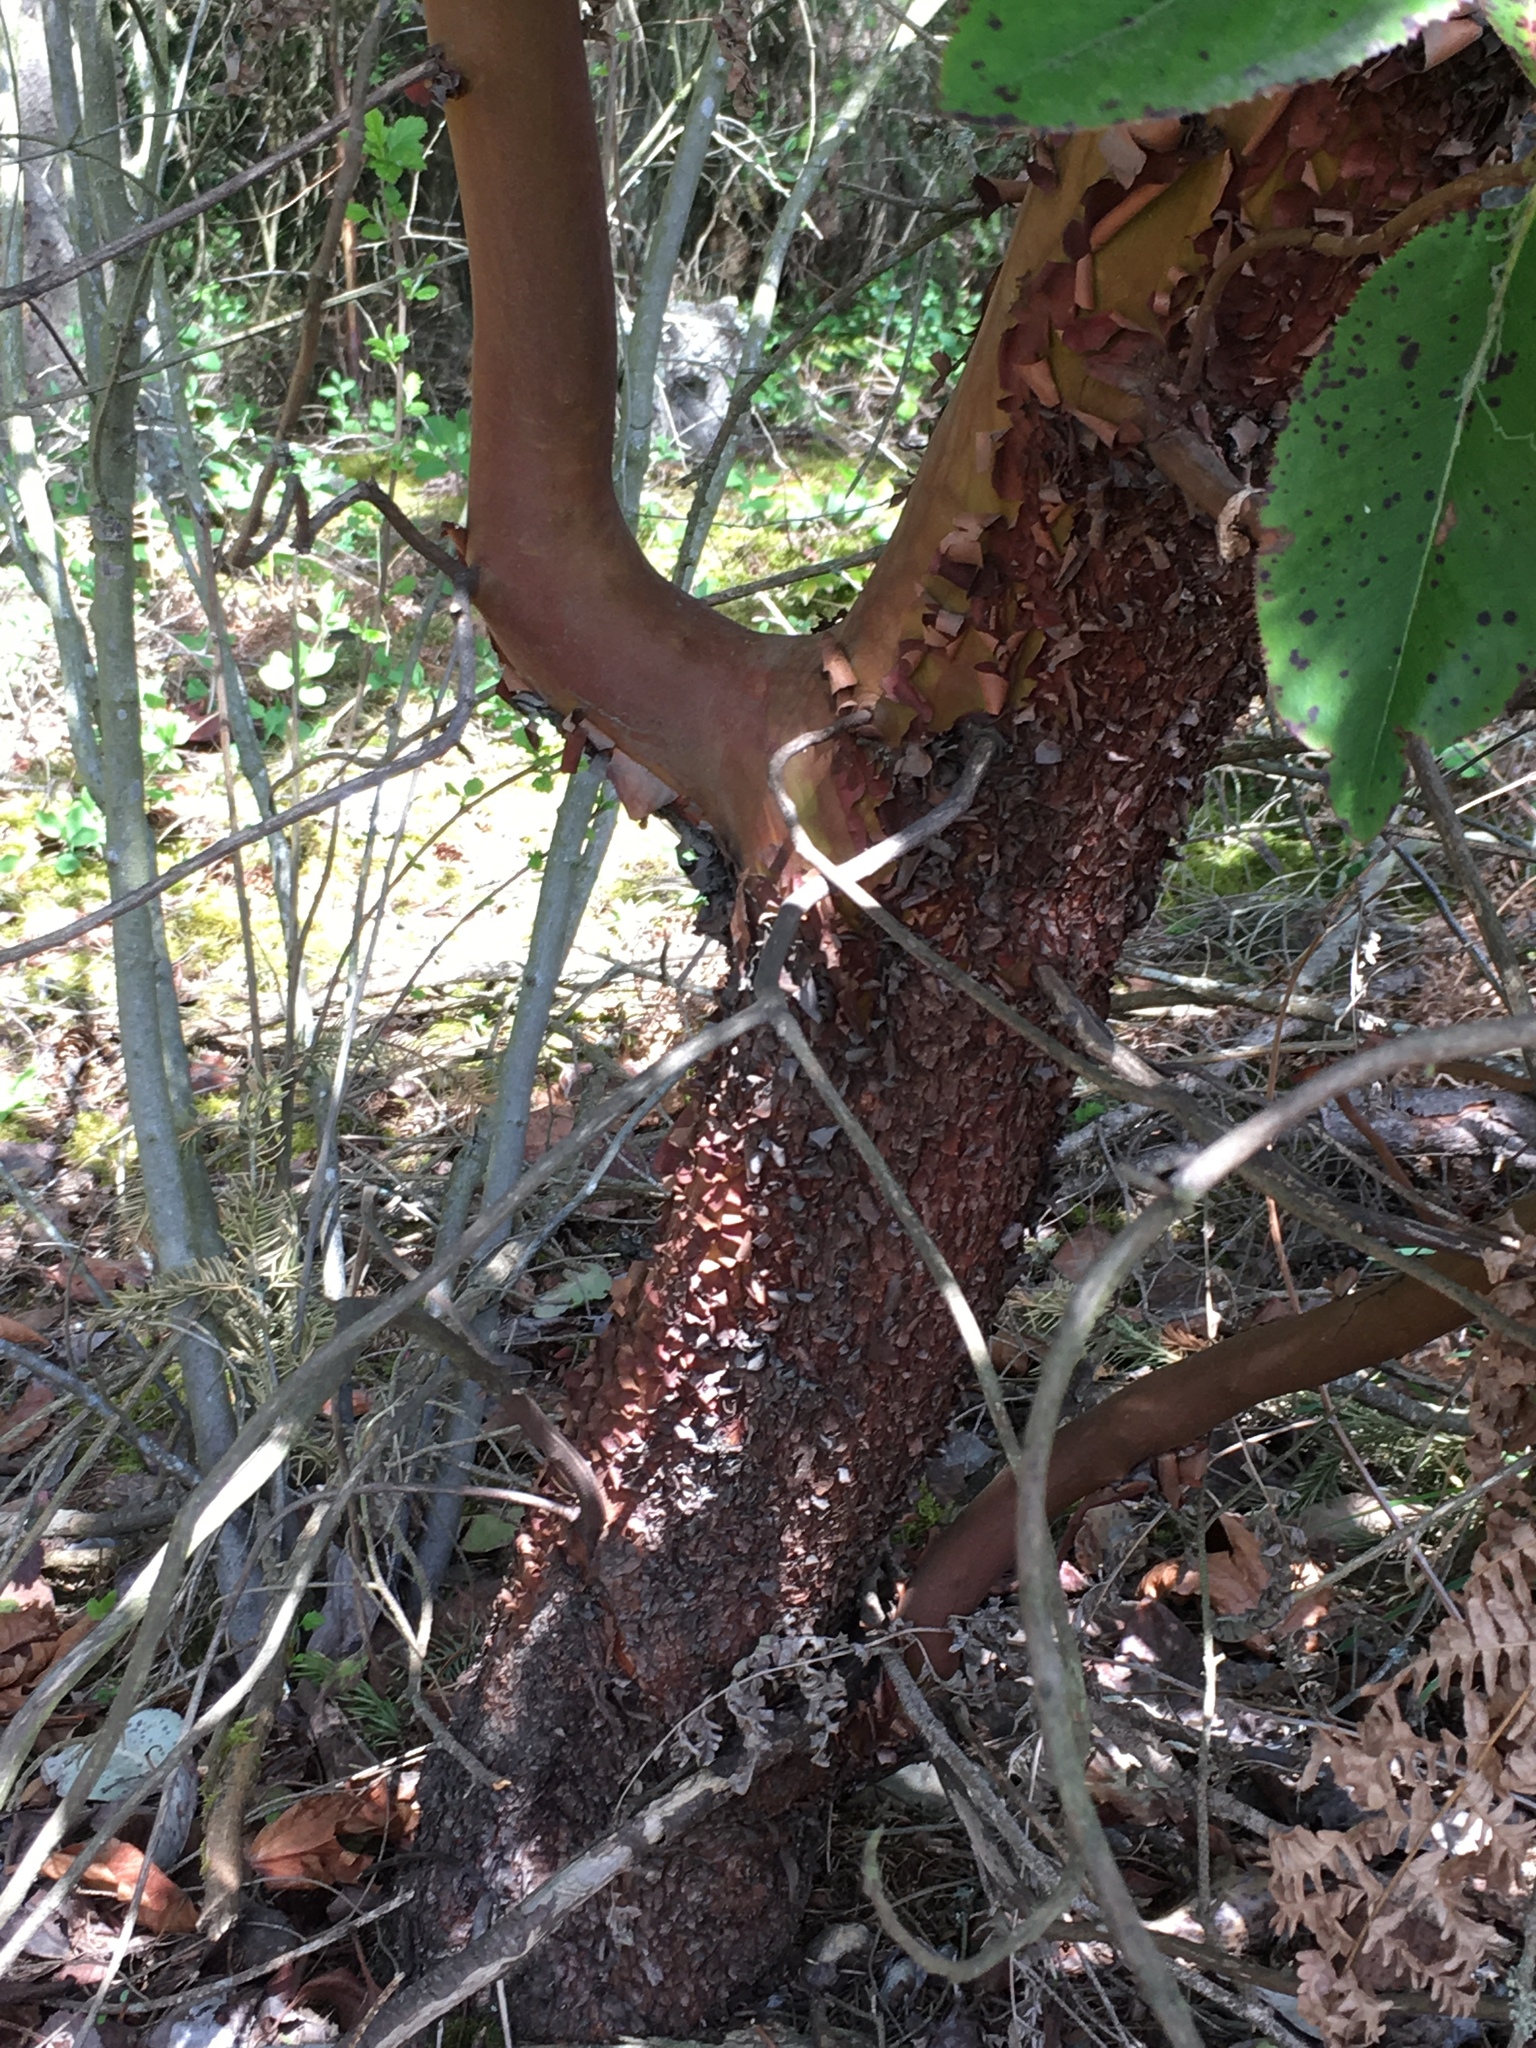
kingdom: Plantae
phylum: Tracheophyta
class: Magnoliopsida
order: Ericales
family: Ericaceae
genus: Arbutus
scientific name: Arbutus menziesii
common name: Pacific madrone
